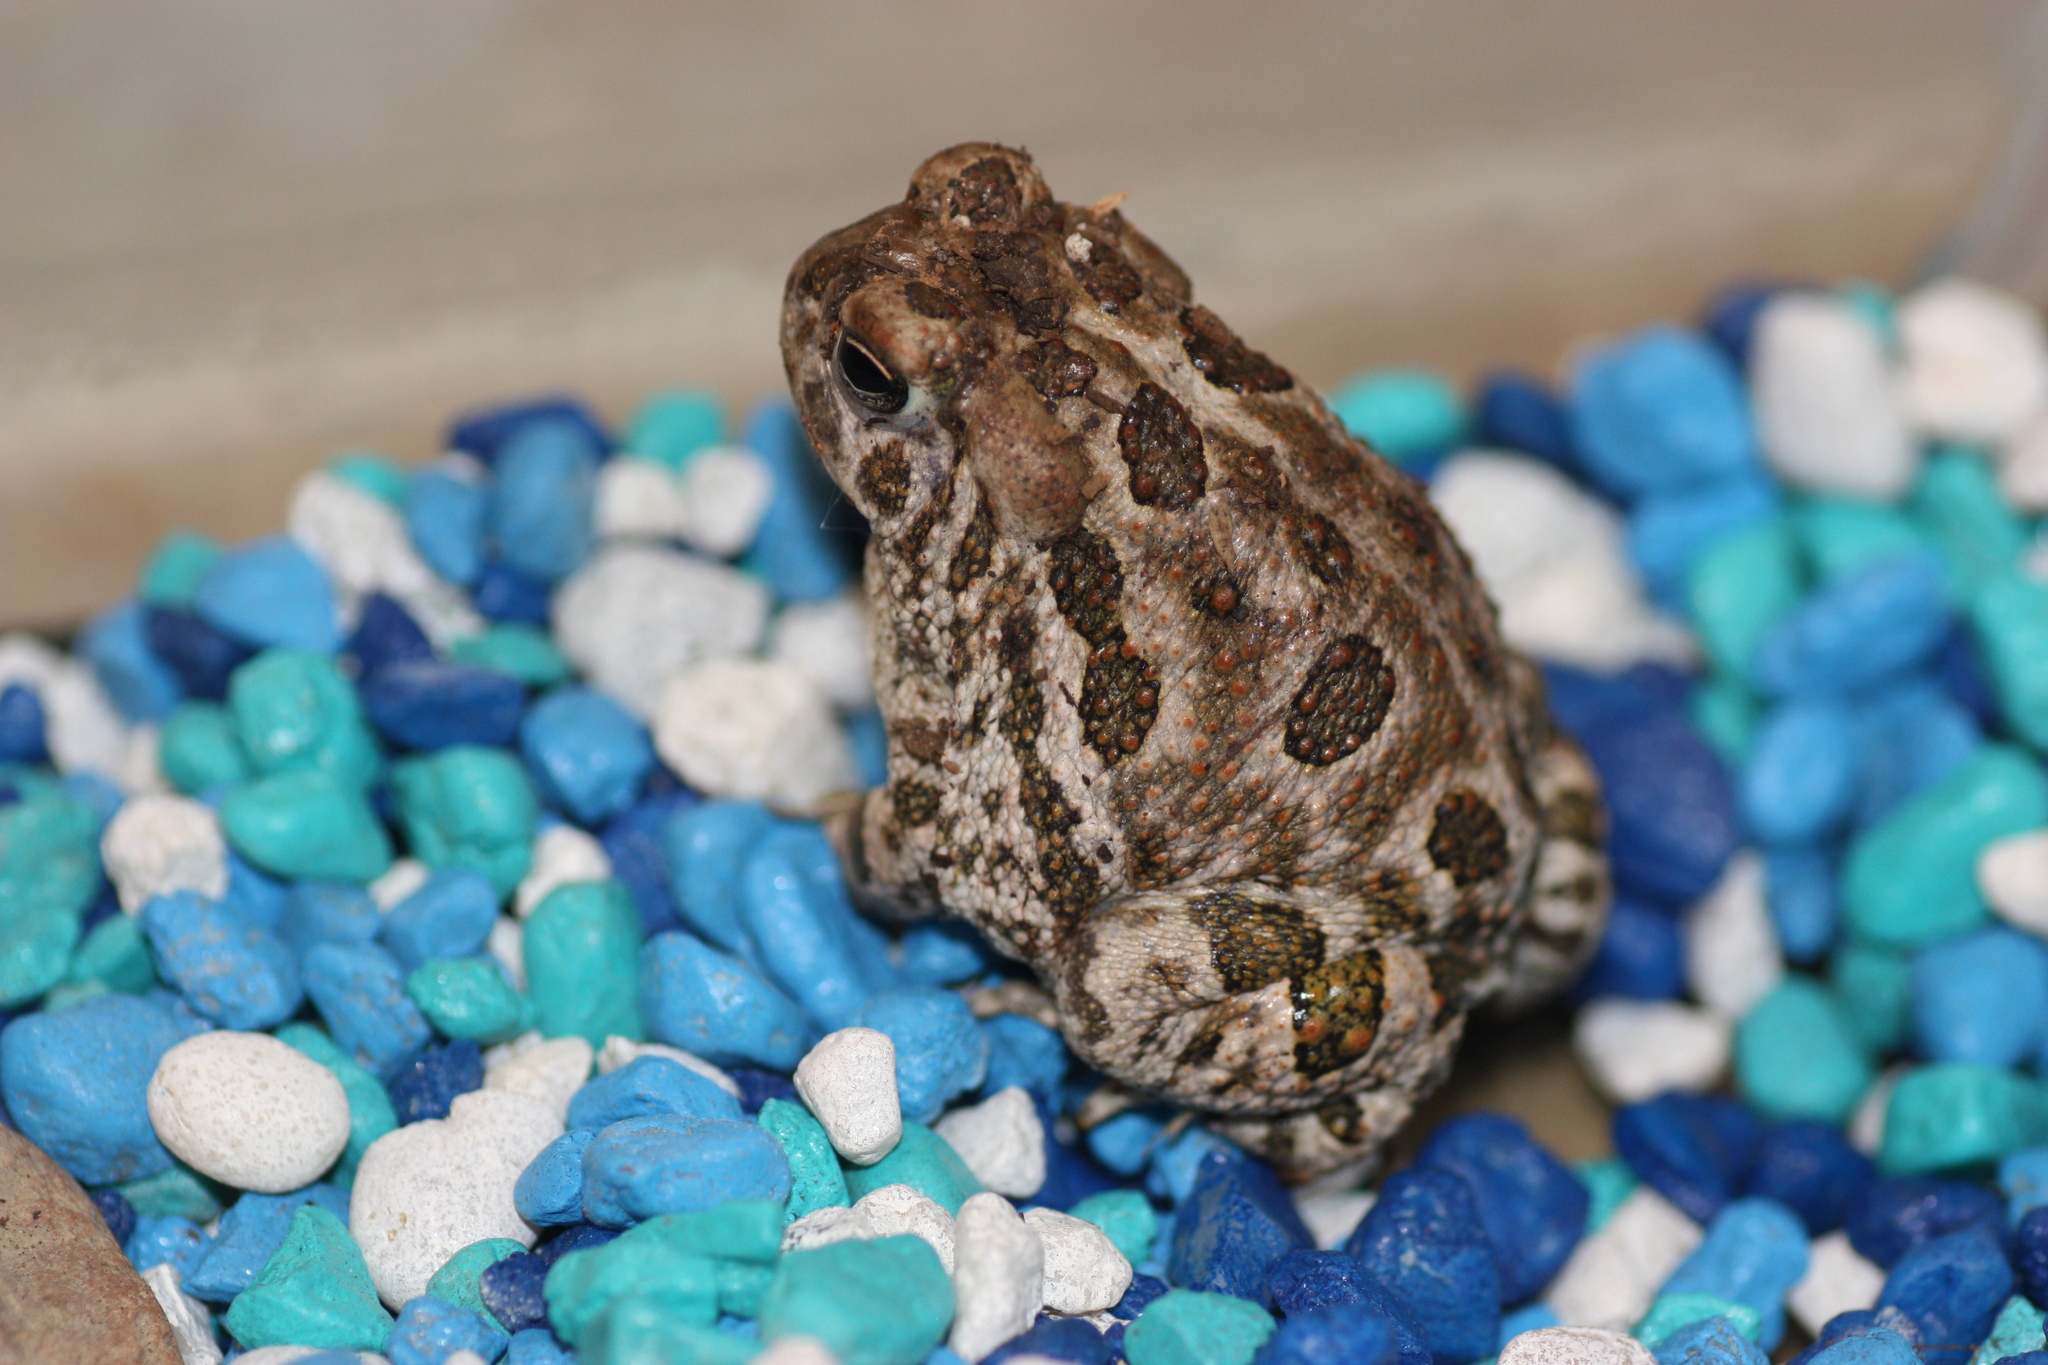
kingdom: Animalia
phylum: Chordata
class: Amphibia
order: Anura
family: Bufonidae
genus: Anaxyrus
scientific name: Anaxyrus cognatus
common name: Great plains toad
